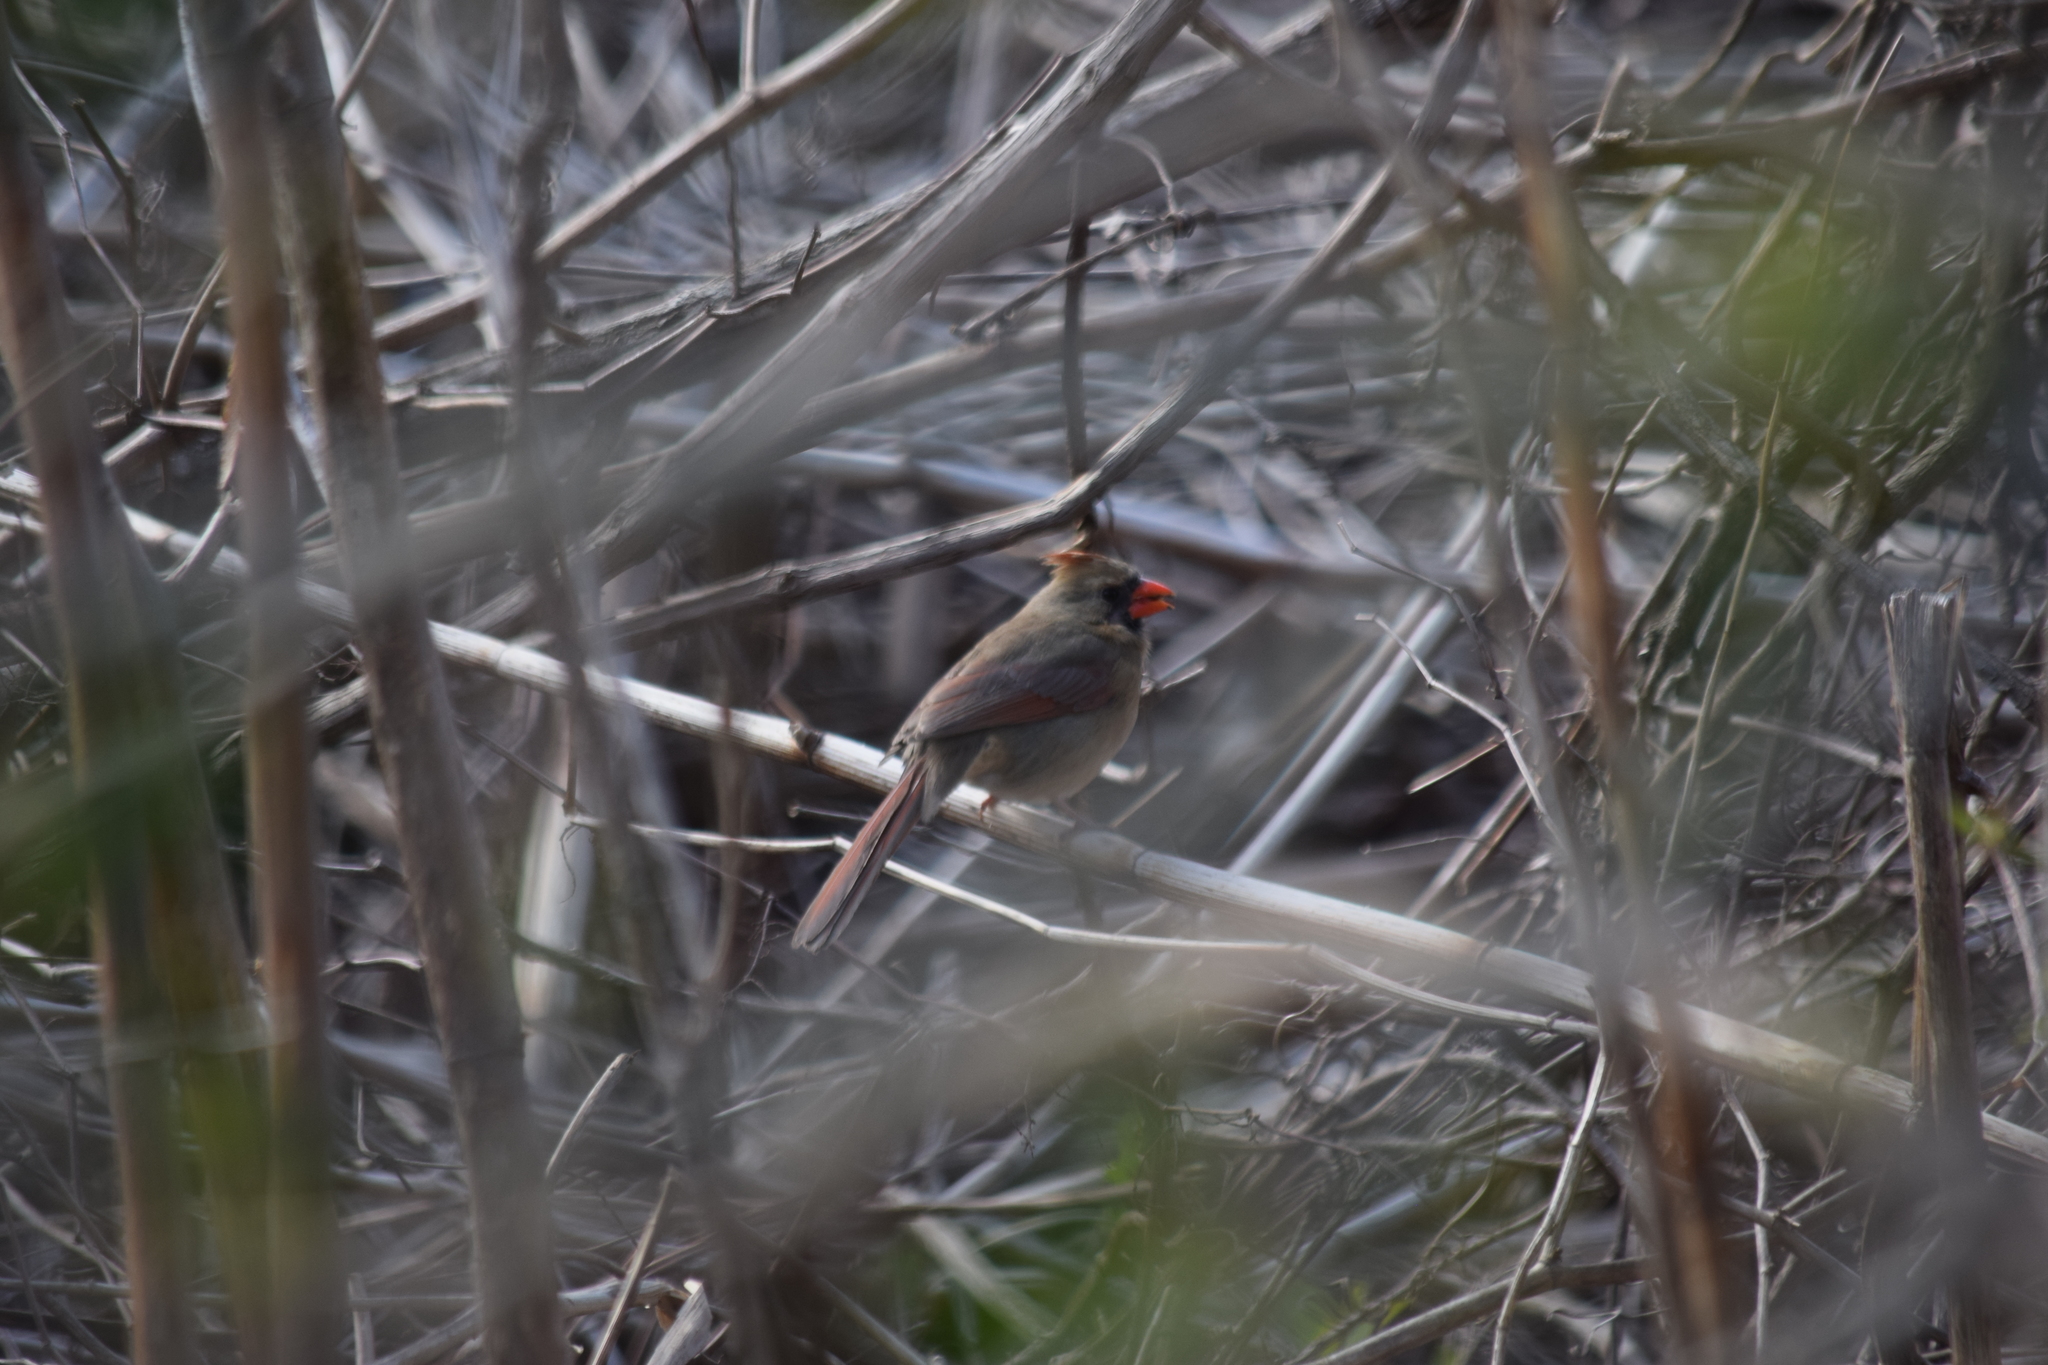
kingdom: Animalia
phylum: Chordata
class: Aves
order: Passeriformes
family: Cardinalidae
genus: Cardinalis
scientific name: Cardinalis cardinalis
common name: Northern cardinal
